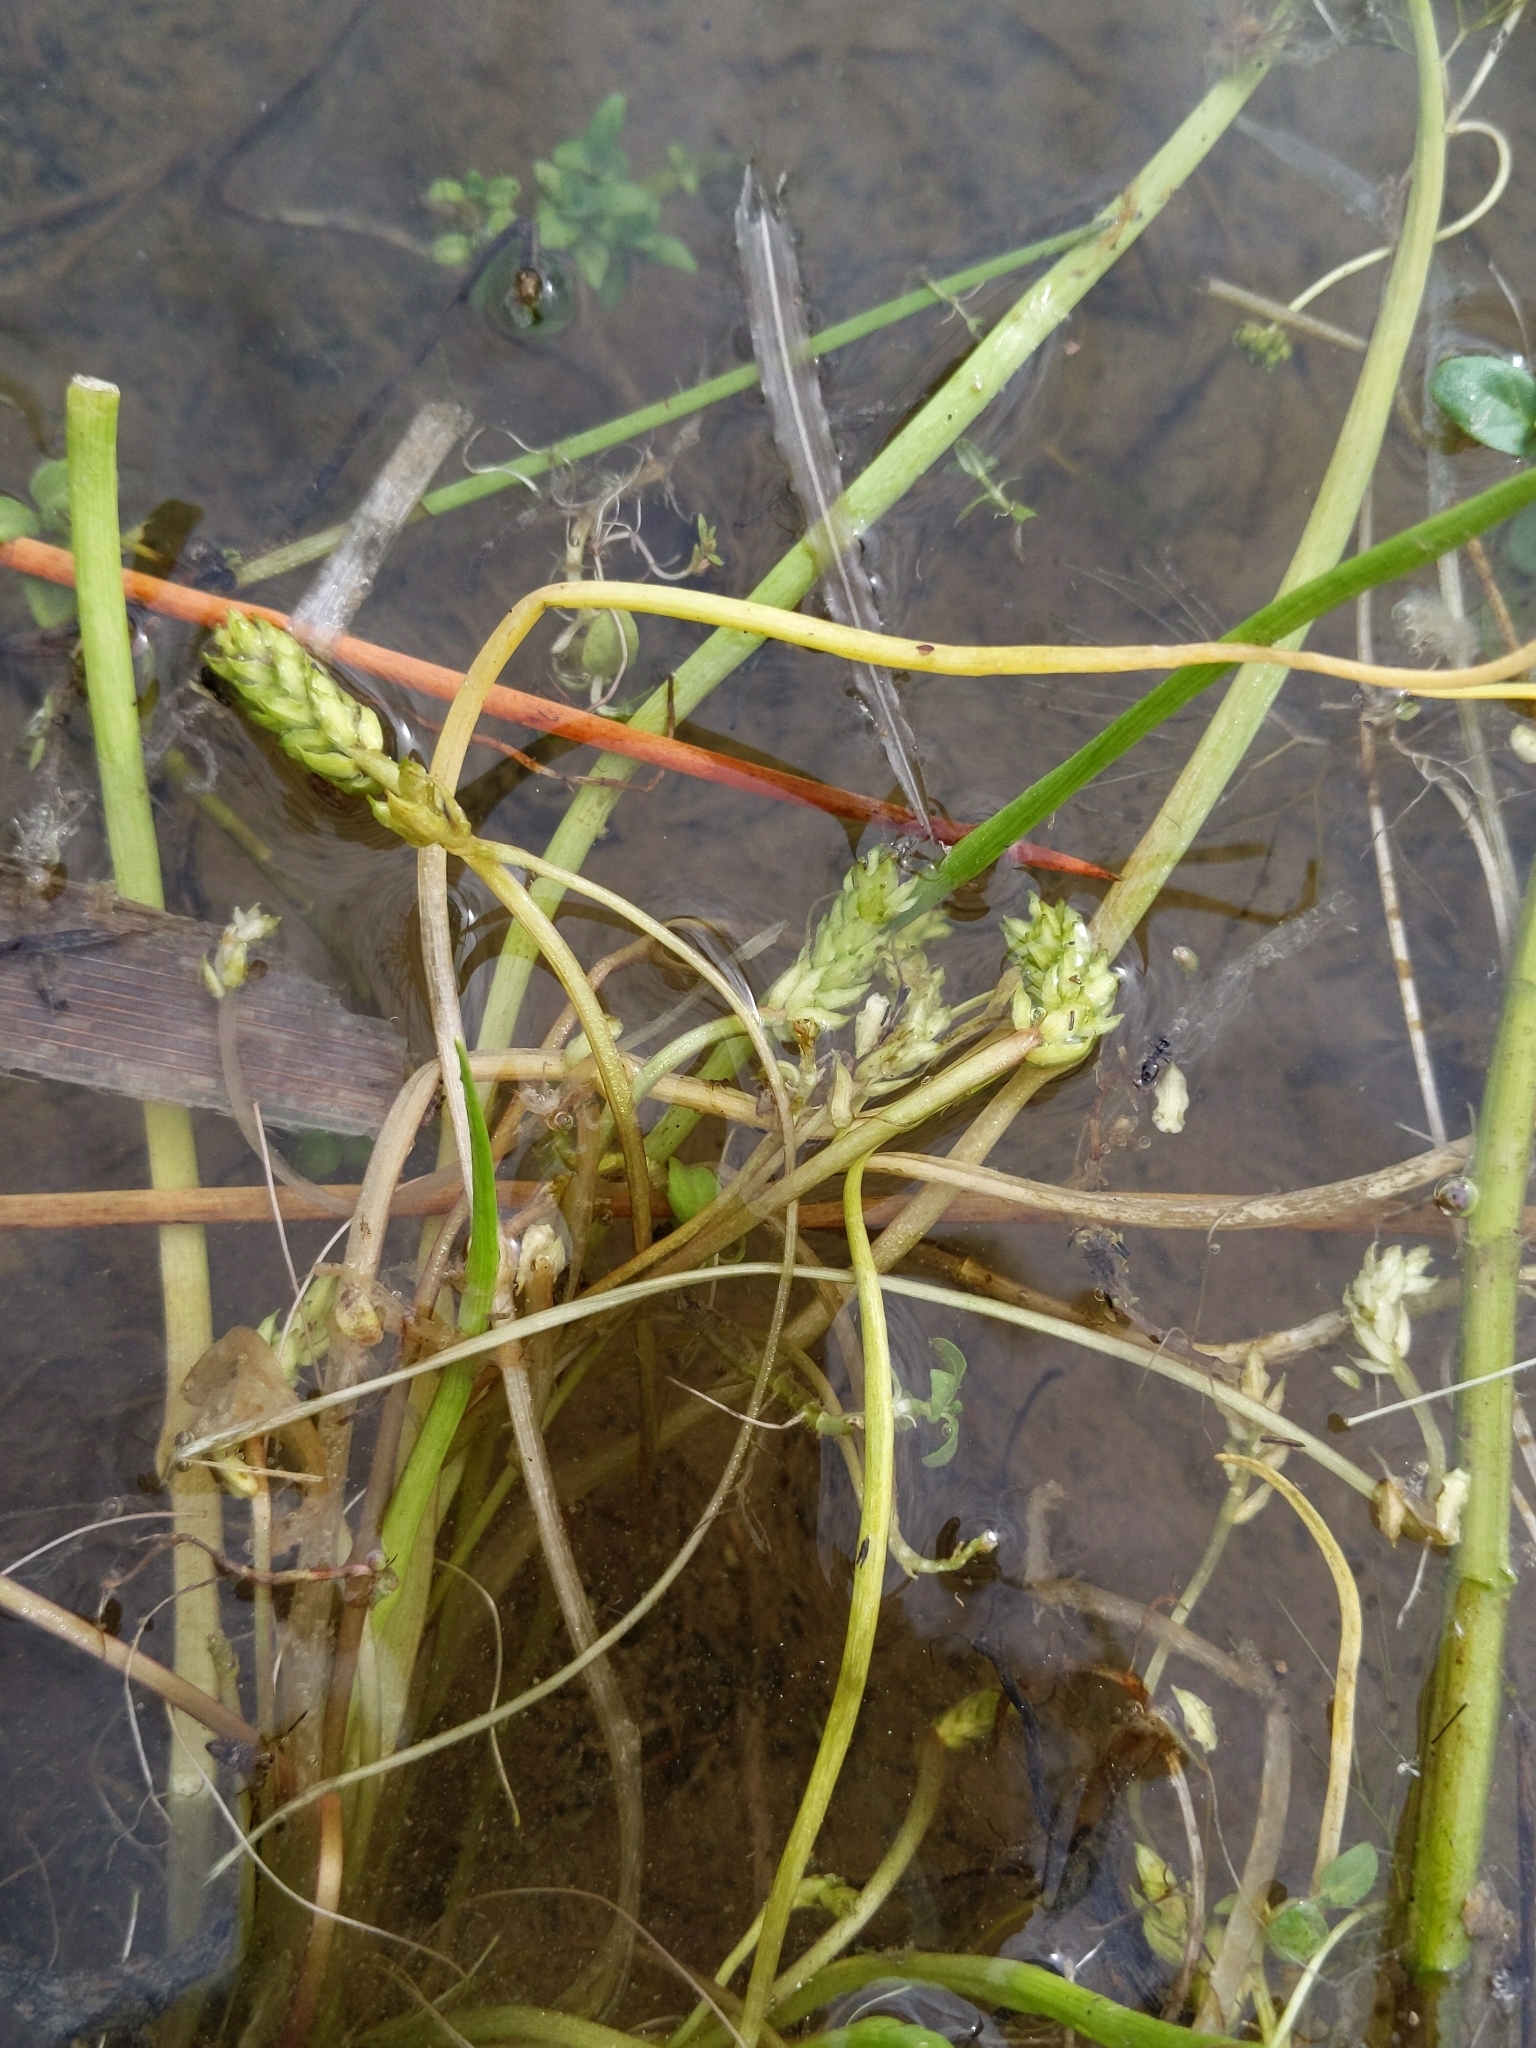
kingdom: Plantae
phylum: Tracheophyta
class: Liliopsida
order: Alismatales
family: Juncaginaceae
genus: Triglochin
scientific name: Triglochin scilloides
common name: Awl-leaved lilaea
